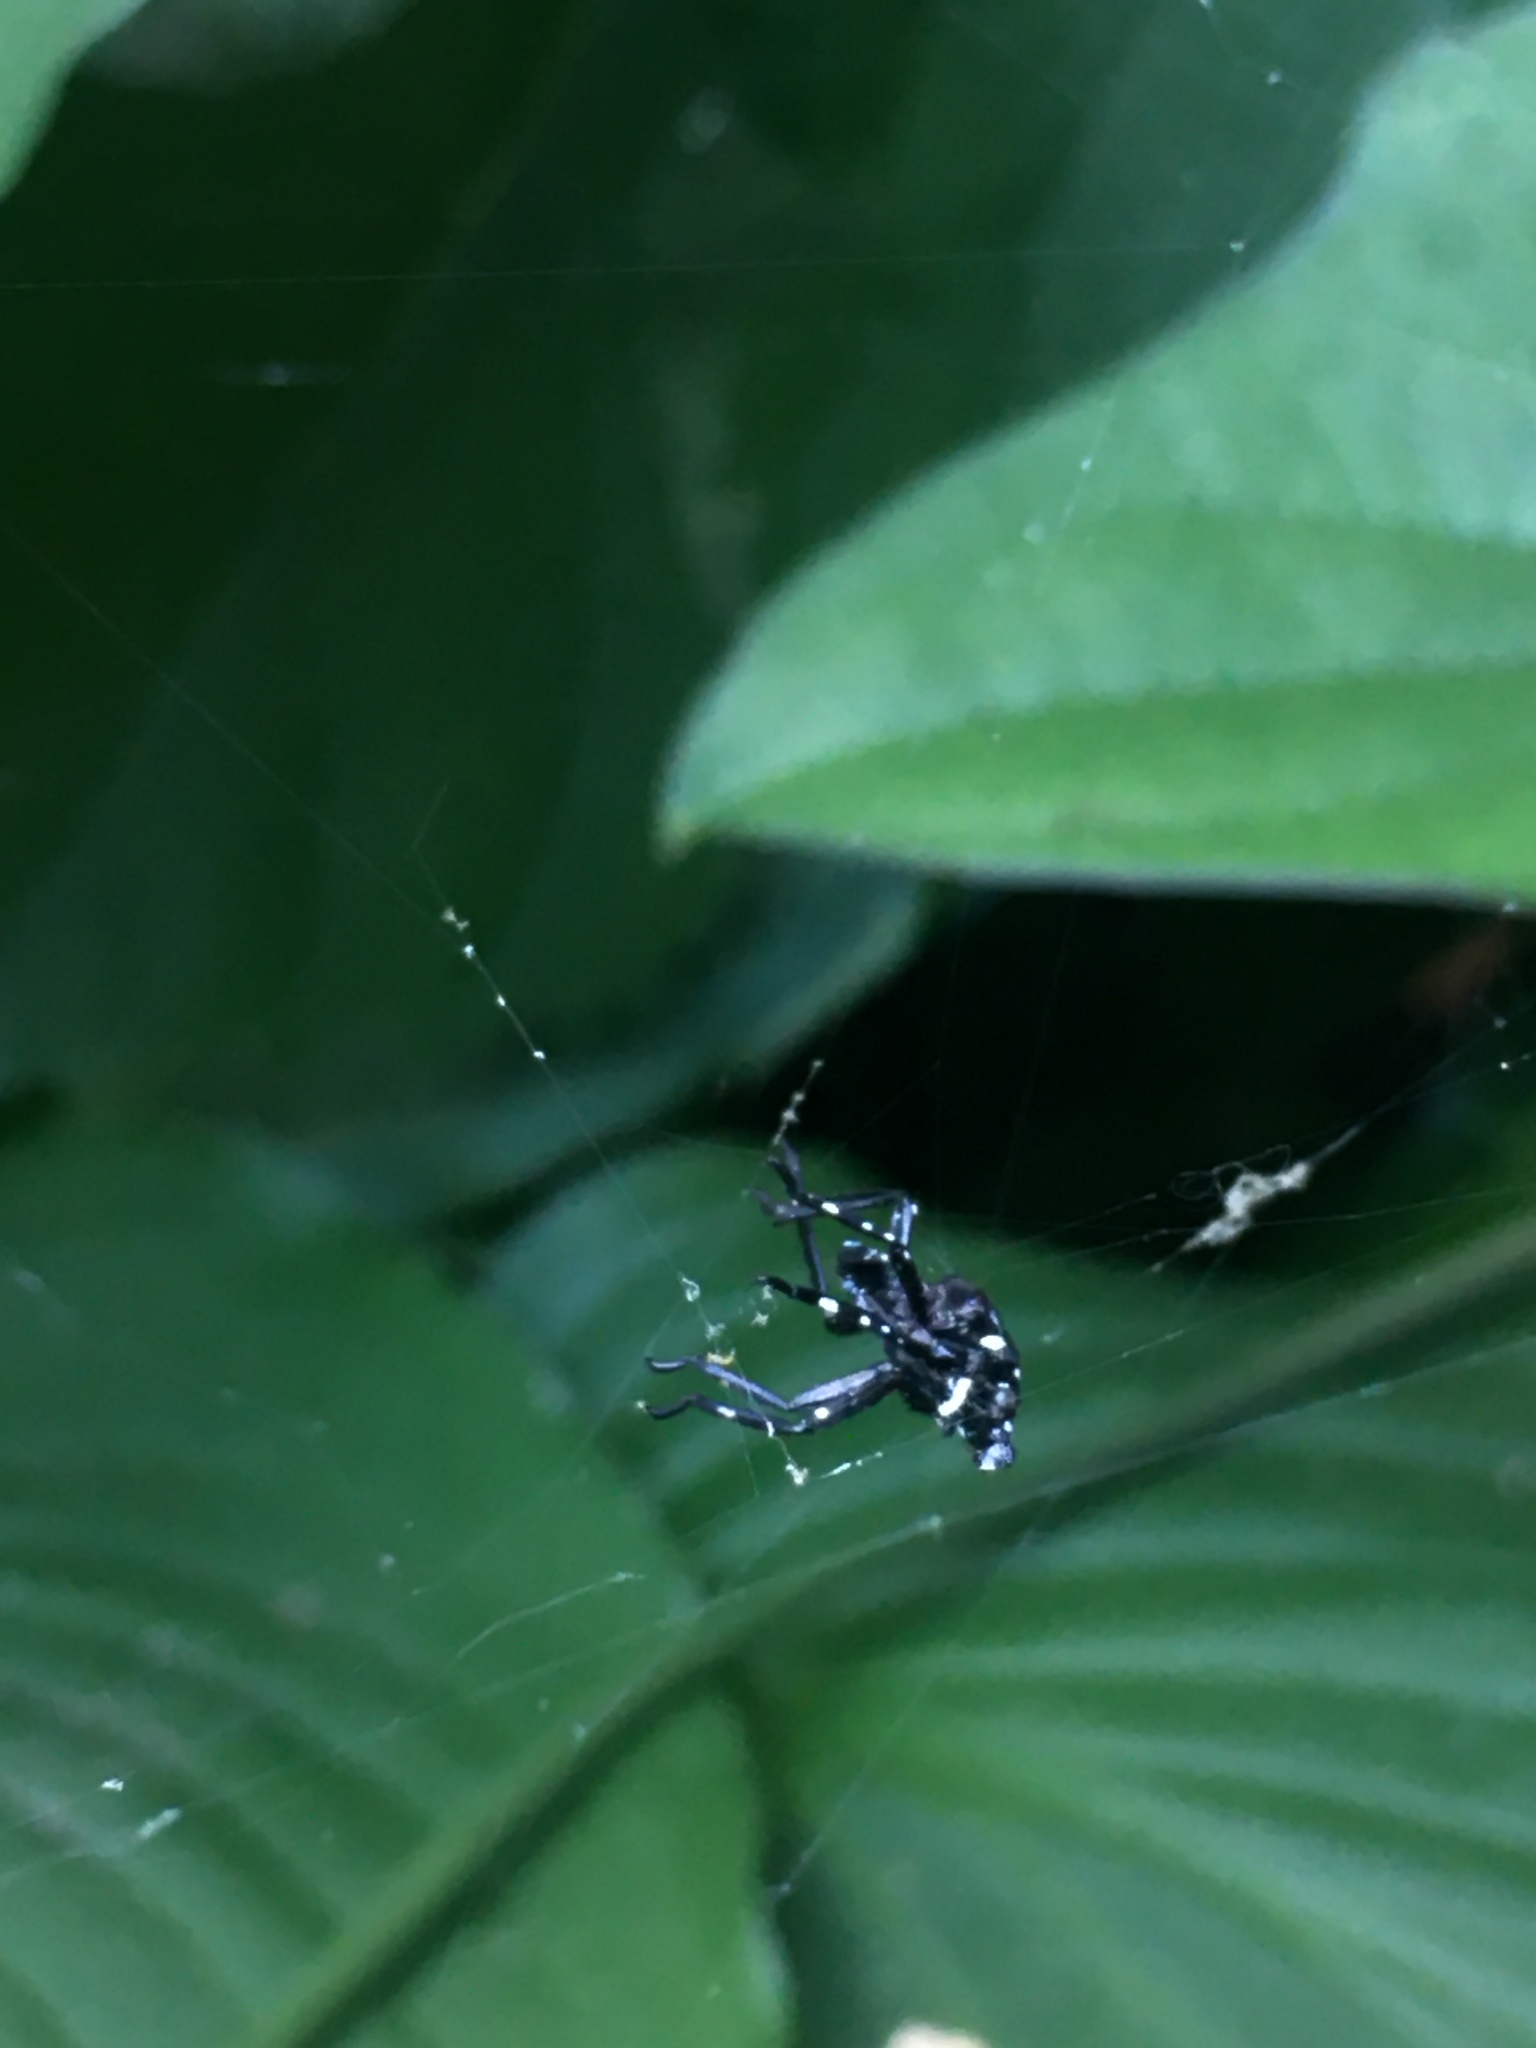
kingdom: Animalia
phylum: Arthropoda
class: Insecta
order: Hemiptera
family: Fulgoridae
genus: Lycorma
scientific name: Lycorma delicatula
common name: Spotted lanternfly
